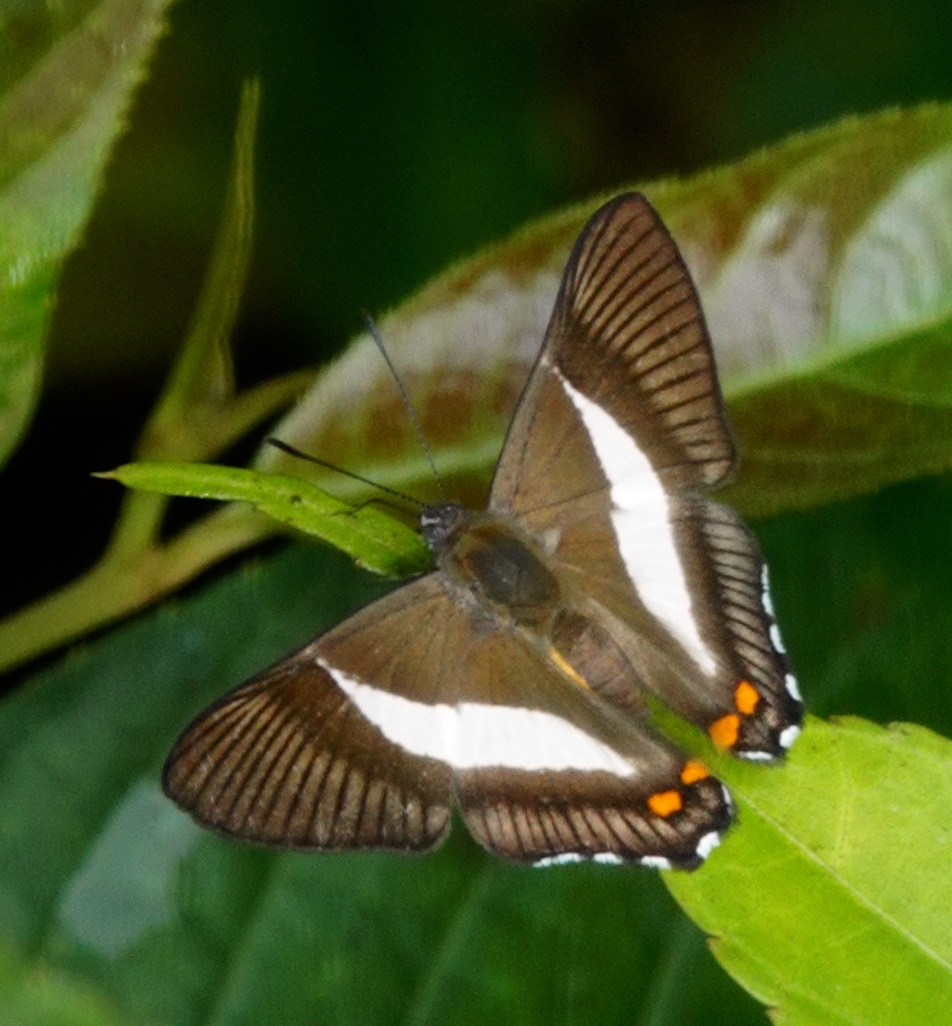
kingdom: Animalia
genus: Siseme
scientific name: Siseme pallas
